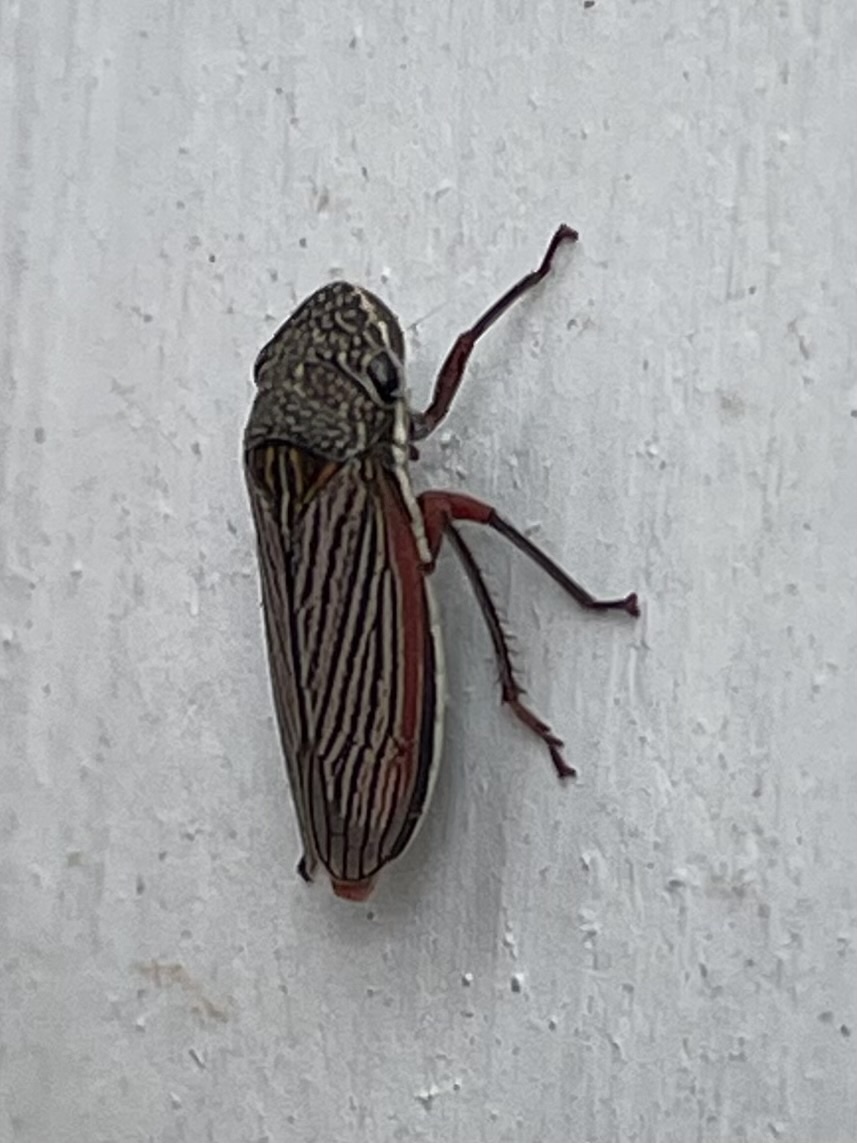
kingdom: Animalia
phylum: Arthropoda
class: Insecta
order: Hemiptera
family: Cicadellidae
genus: Cuerna
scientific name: Cuerna costalis
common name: Lateral-lined sharpshooter
